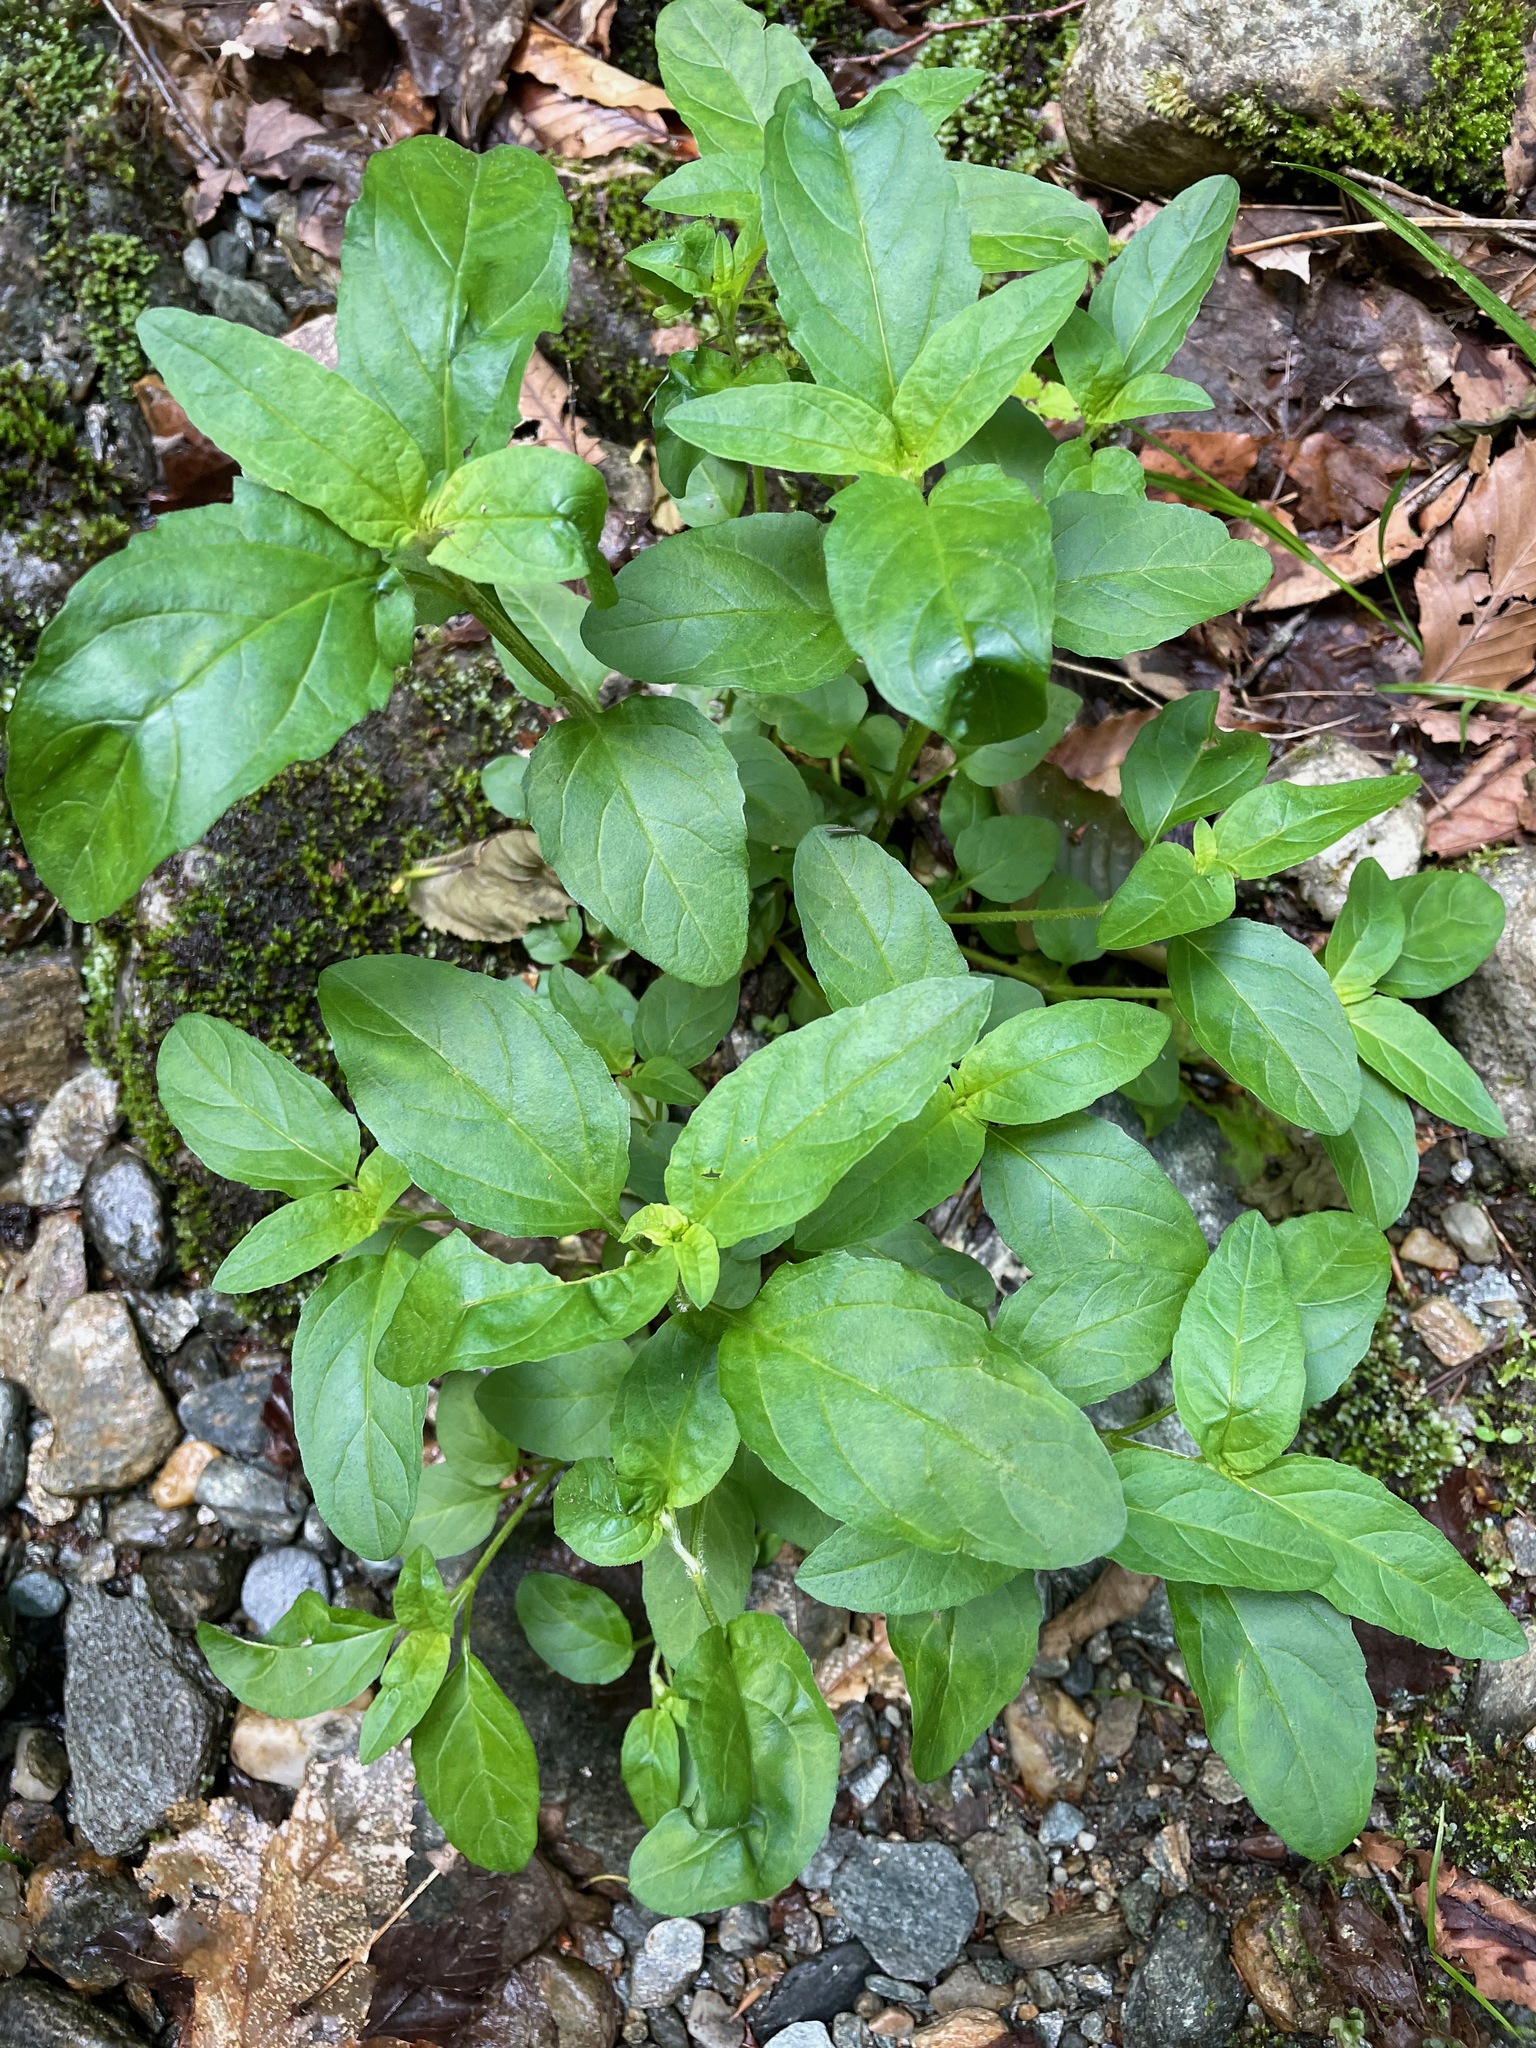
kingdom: Plantae
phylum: Tracheophyta
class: Magnoliopsida
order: Lamiales
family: Lamiaceae
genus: Prunella
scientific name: Prunella vulgaris
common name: Heal-all
